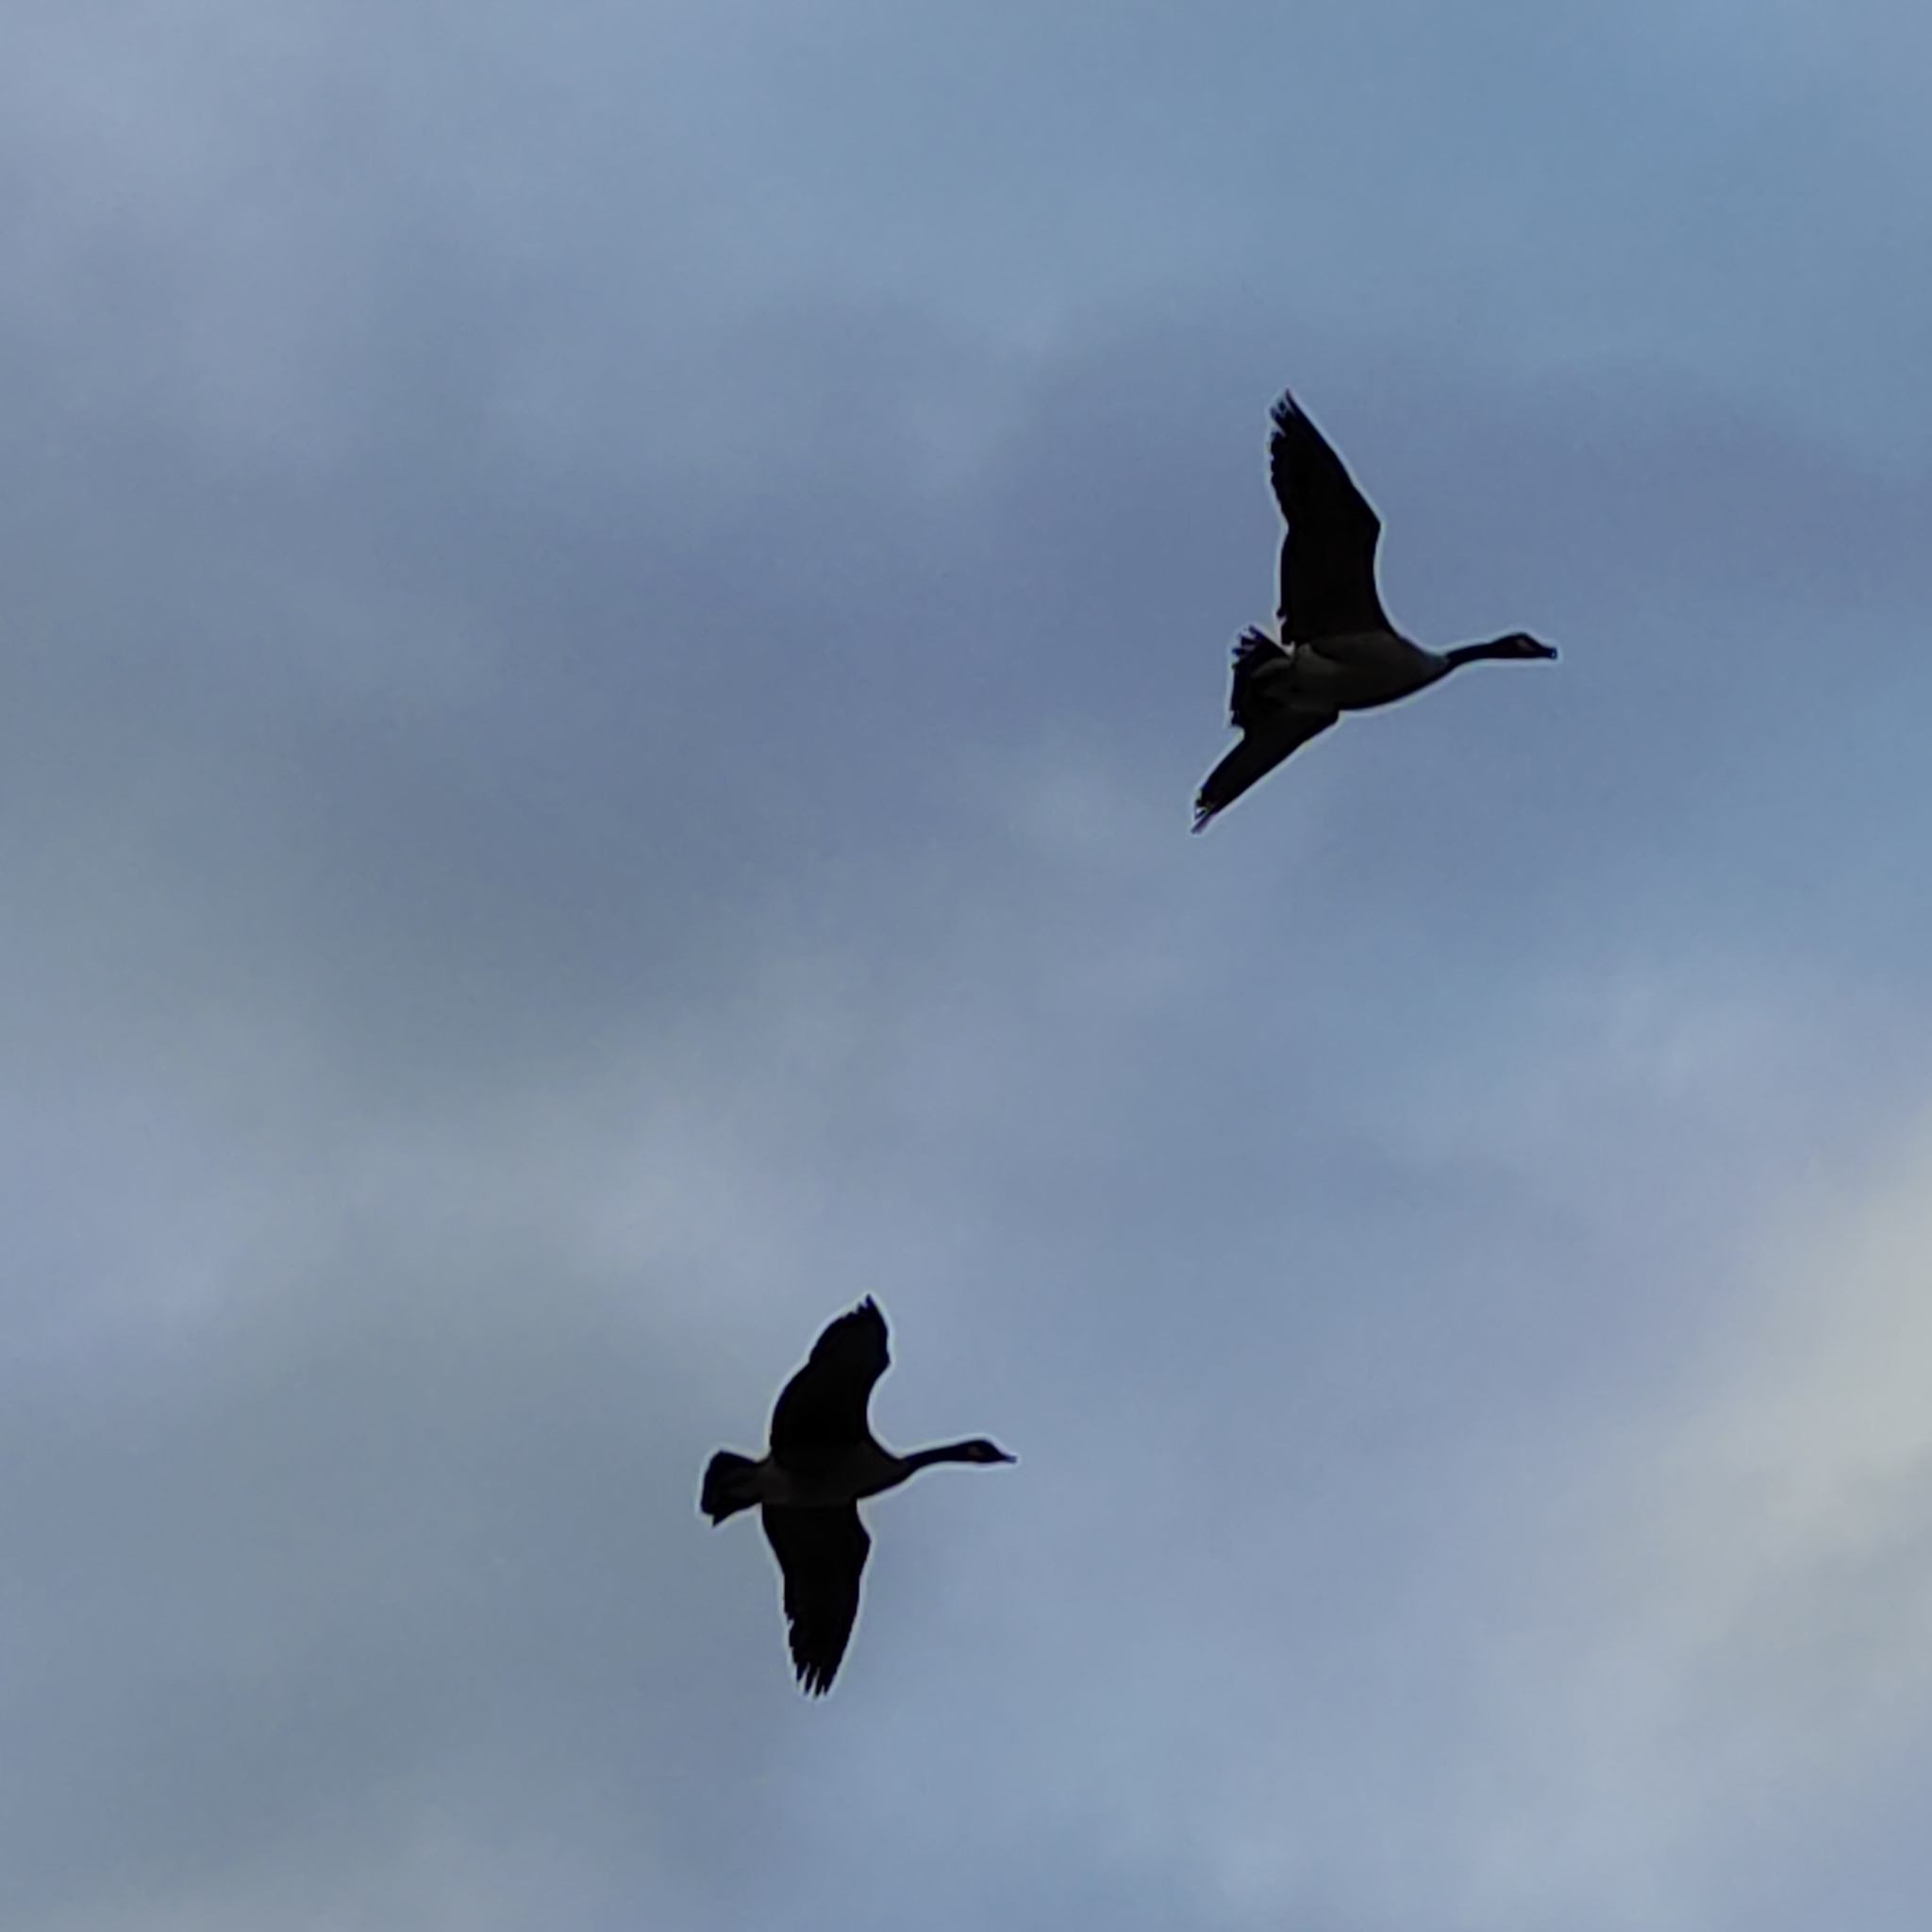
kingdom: Animalia
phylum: Chordata
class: Aves
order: Anseriformes
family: Anatidae
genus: Branta
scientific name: Branta canadensis
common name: Canada goose
